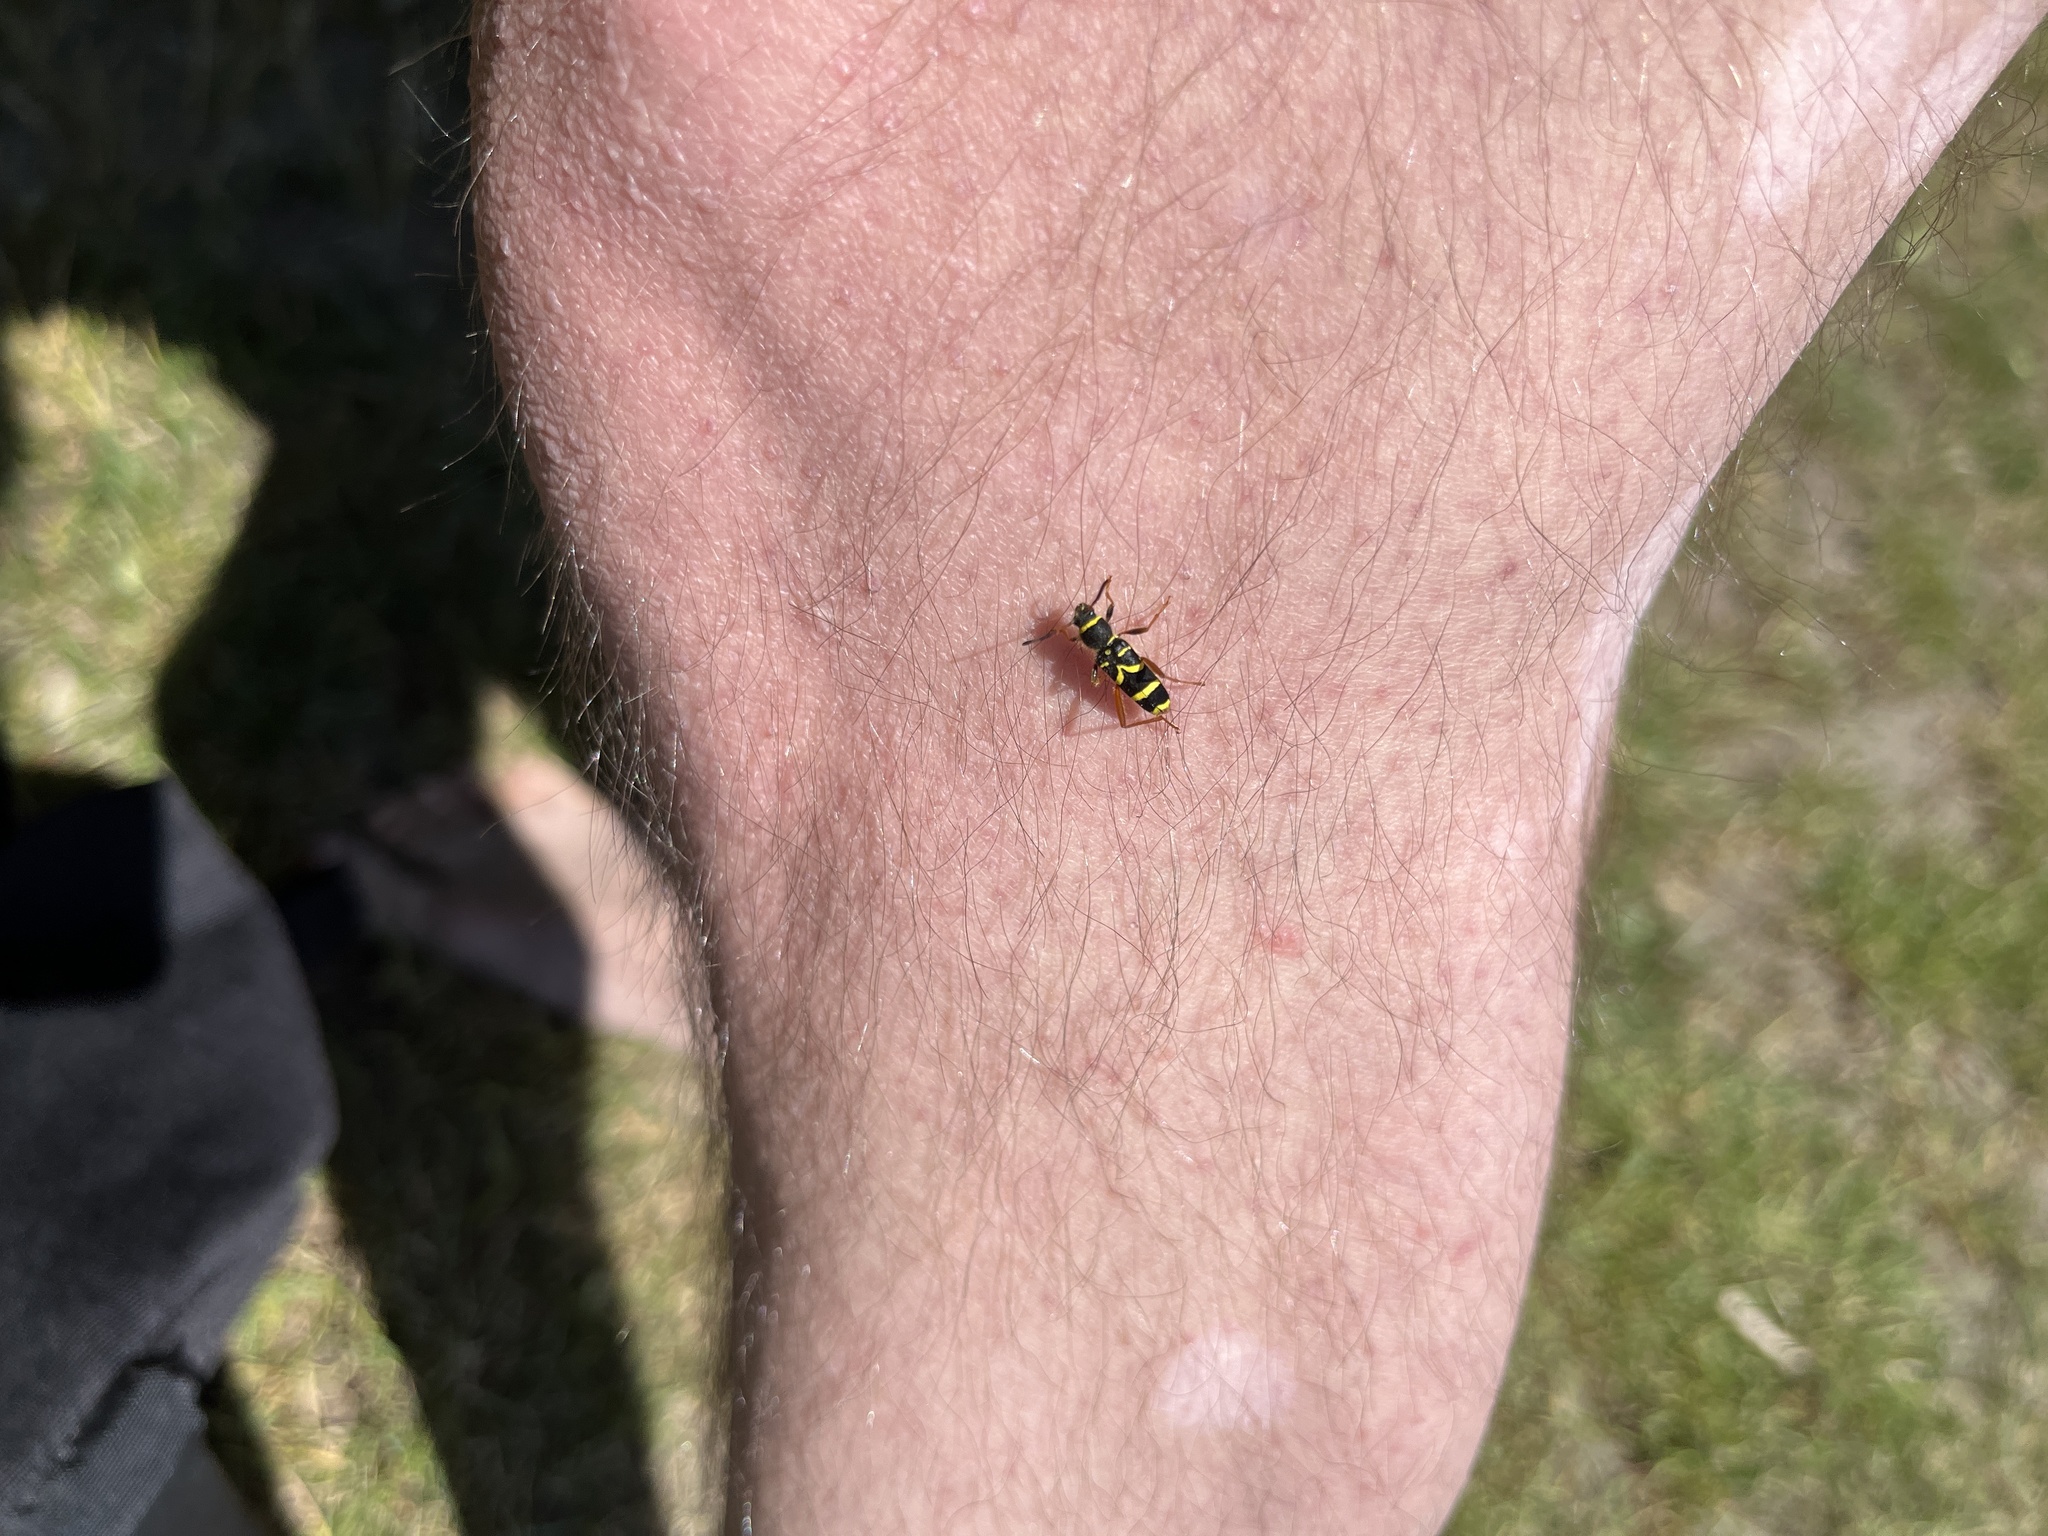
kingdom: Animalia
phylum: Arthropoda
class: Insecta
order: Coleoptera
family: Cerambycidae
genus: Clytus
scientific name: Clytus arietis
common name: Wasp beetle
